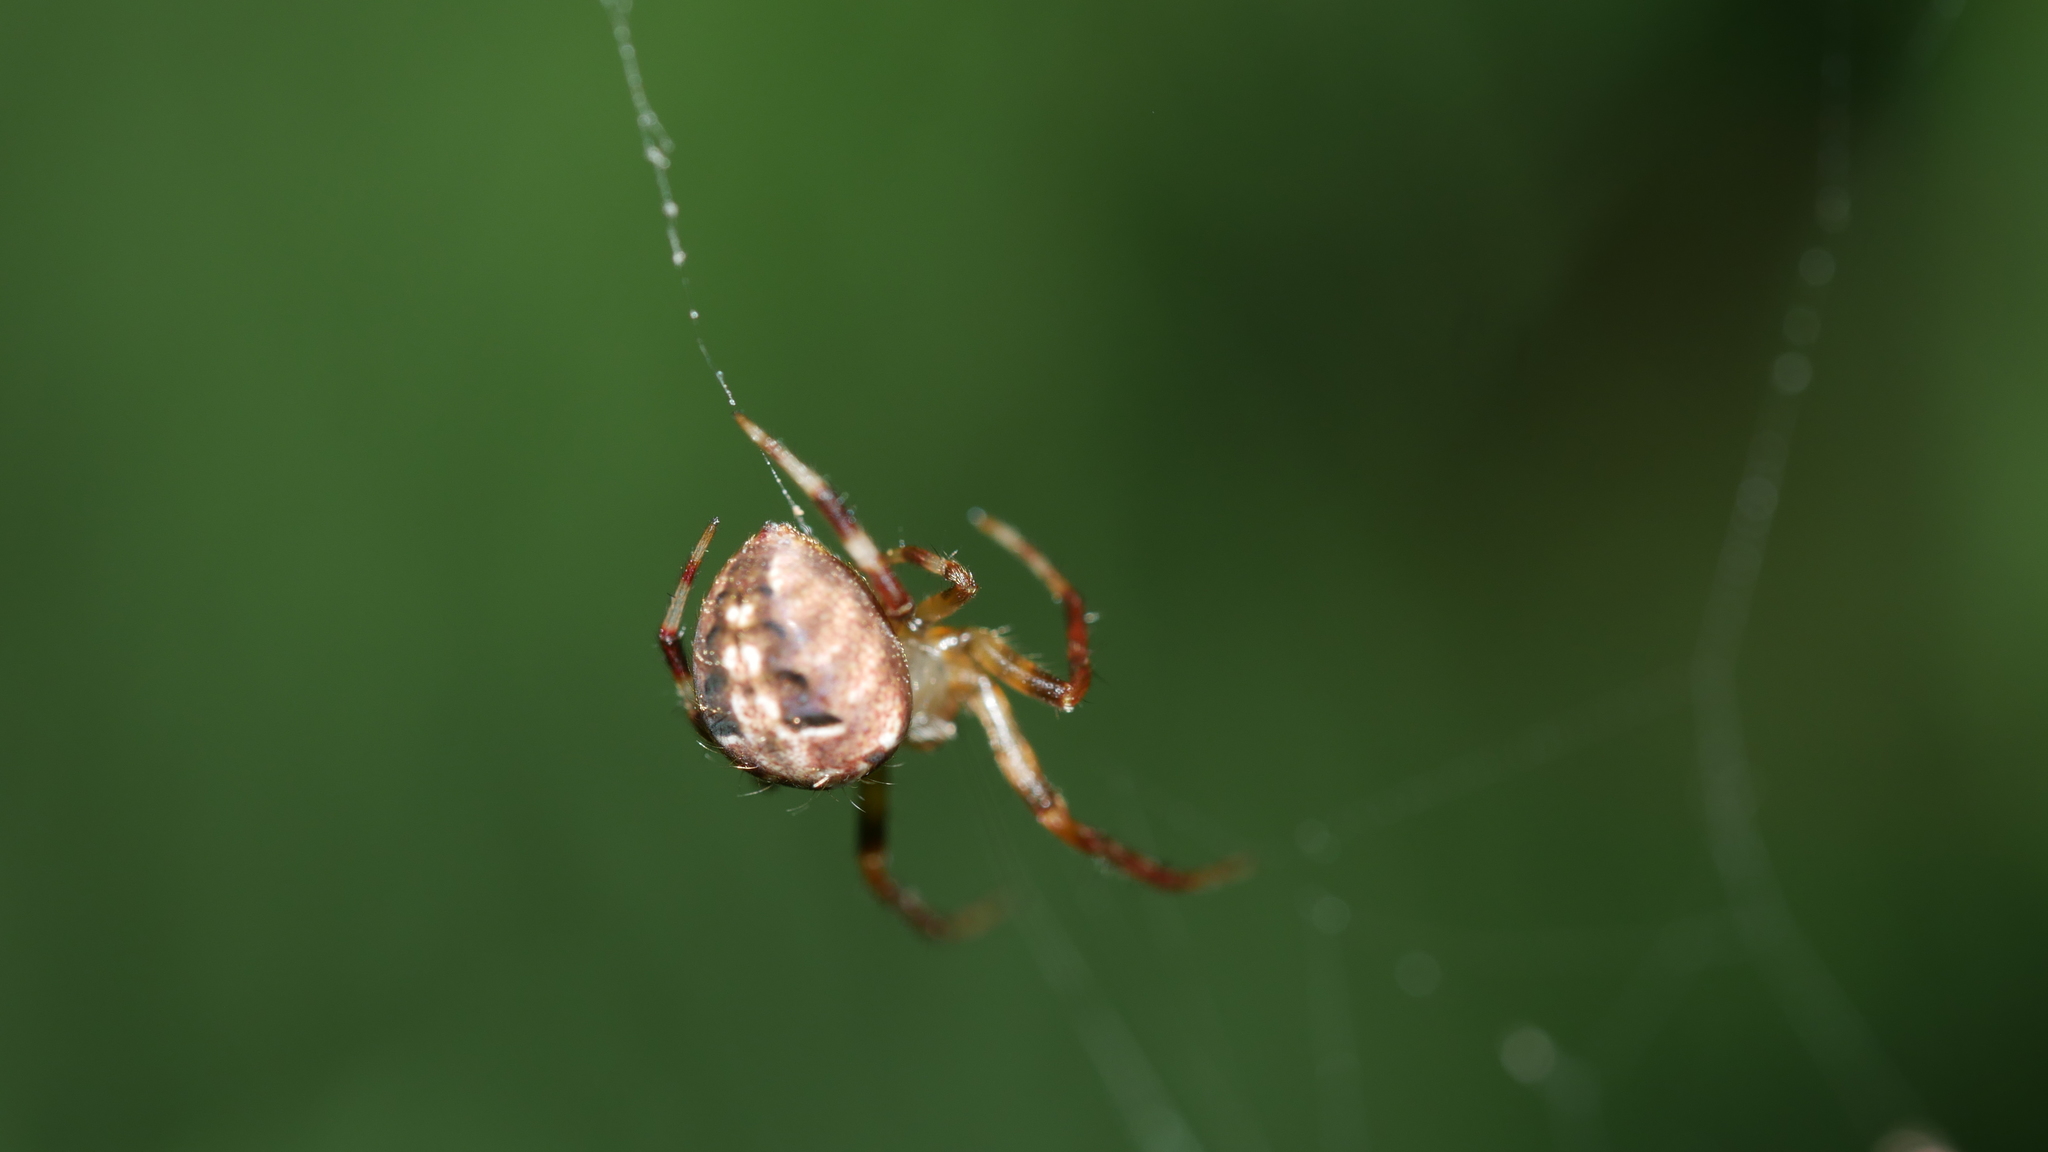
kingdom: Animalia
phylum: Arthropoda
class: Arachnida
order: Araneae
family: Araneidae
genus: Neoscona
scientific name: Neoscona arabesca
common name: Orb weavers
